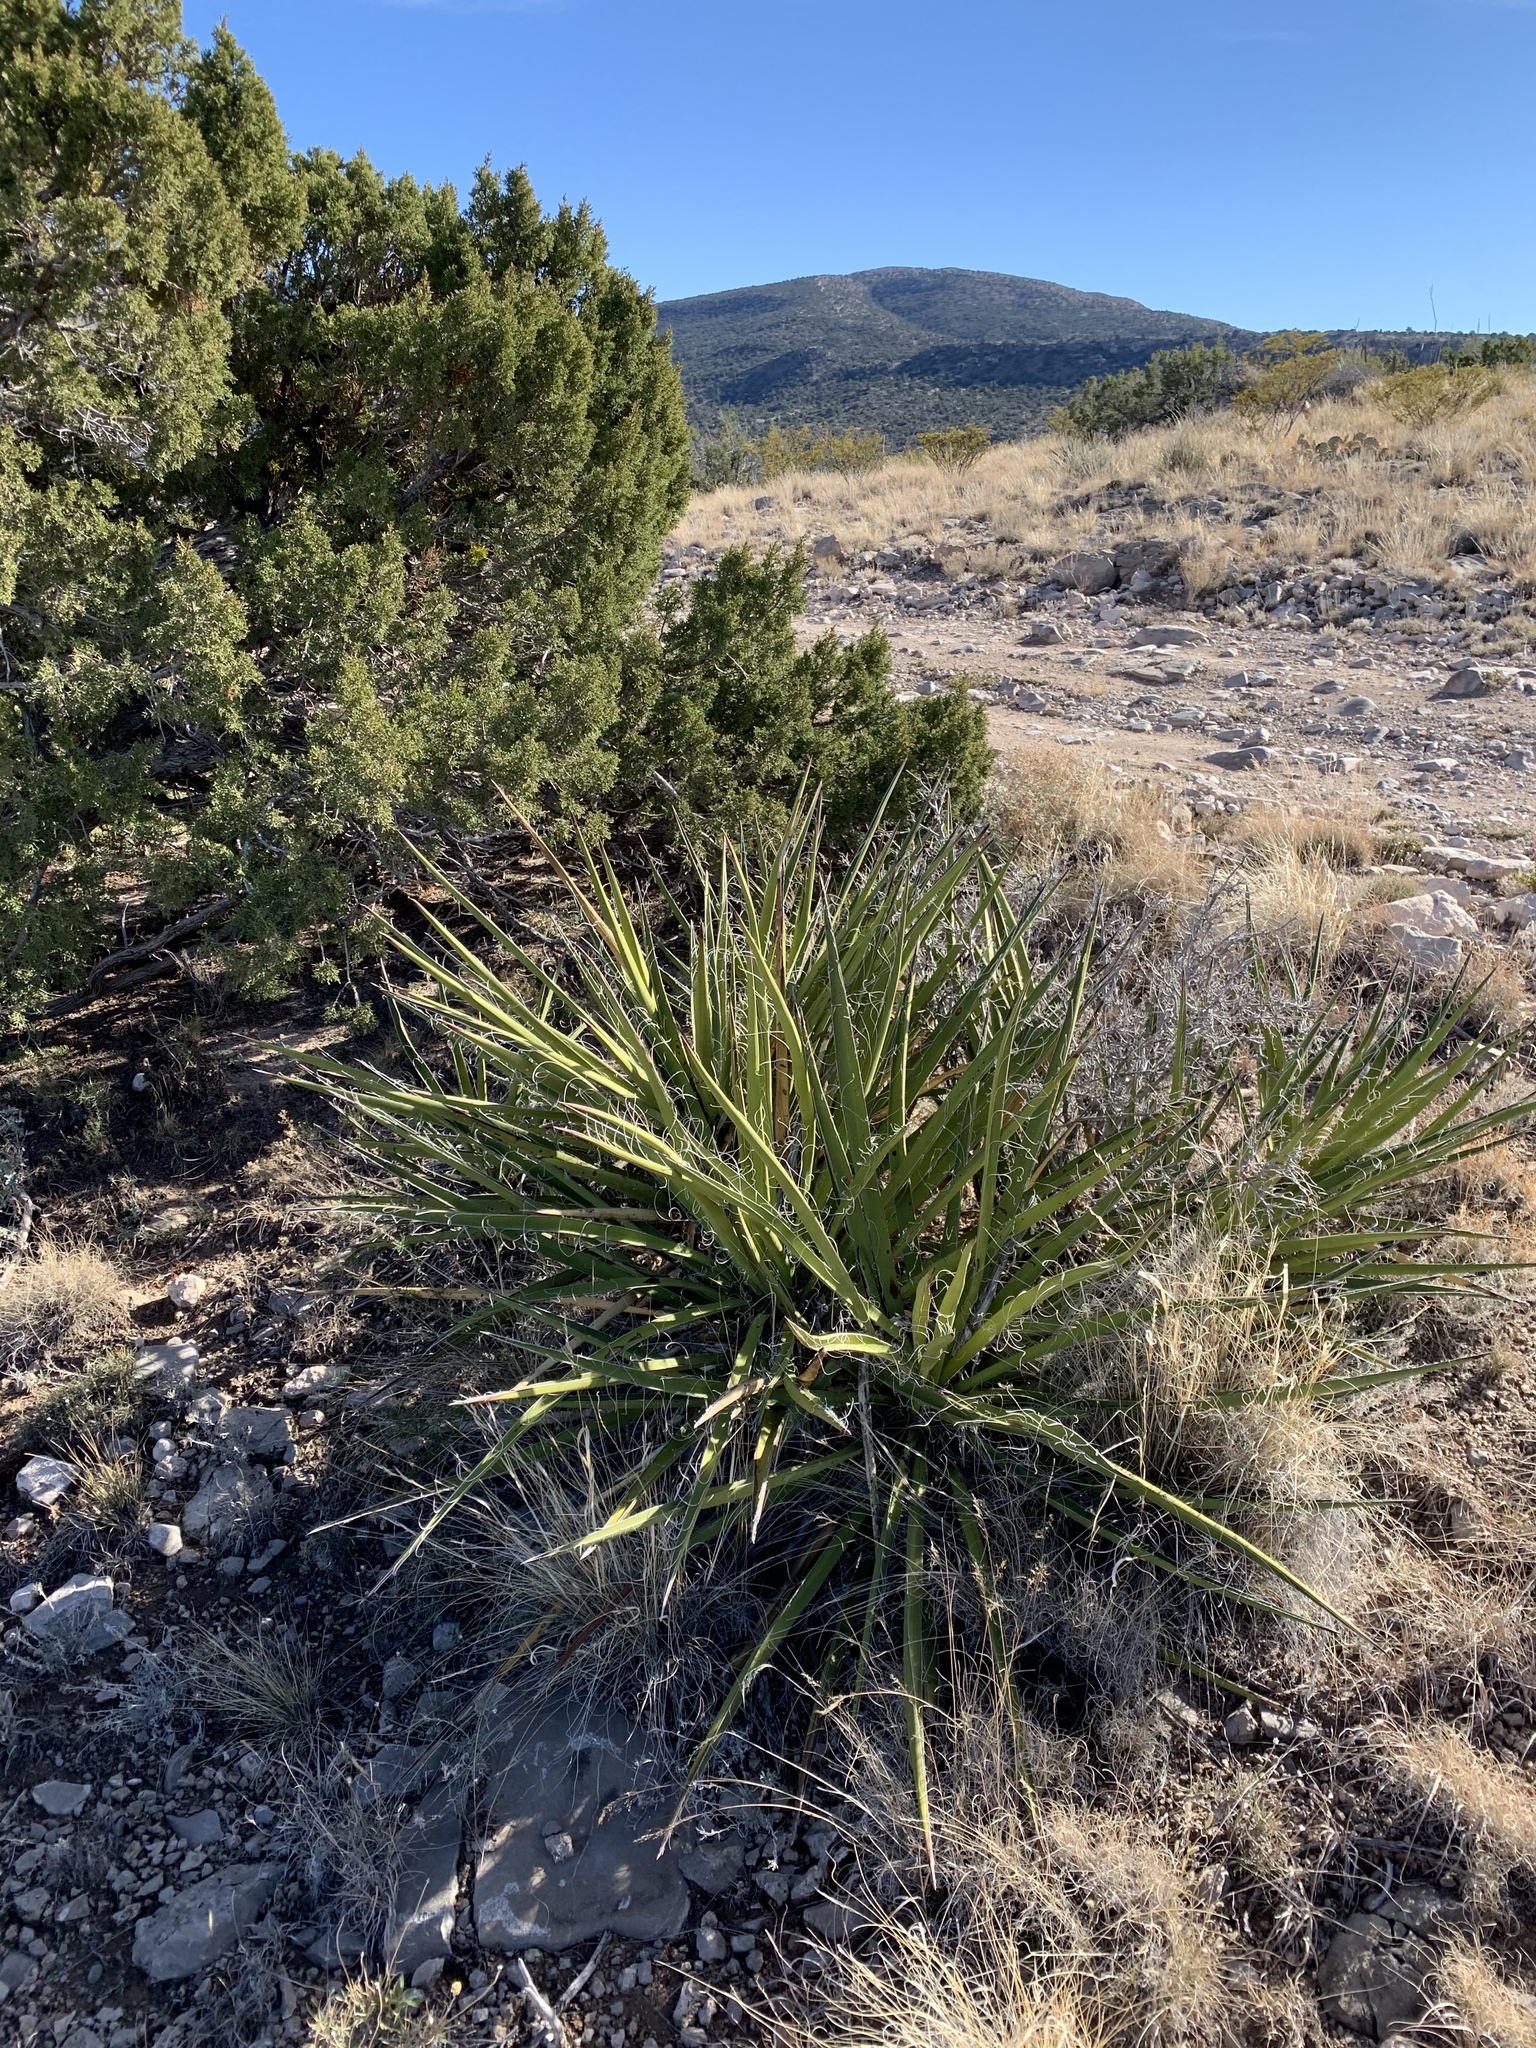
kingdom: Plantae
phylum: Tracheophyta
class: Liliopsida
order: Asparagales
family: Asparagaceae
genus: Yucca
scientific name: Yucca baccata
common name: Banana yucca
